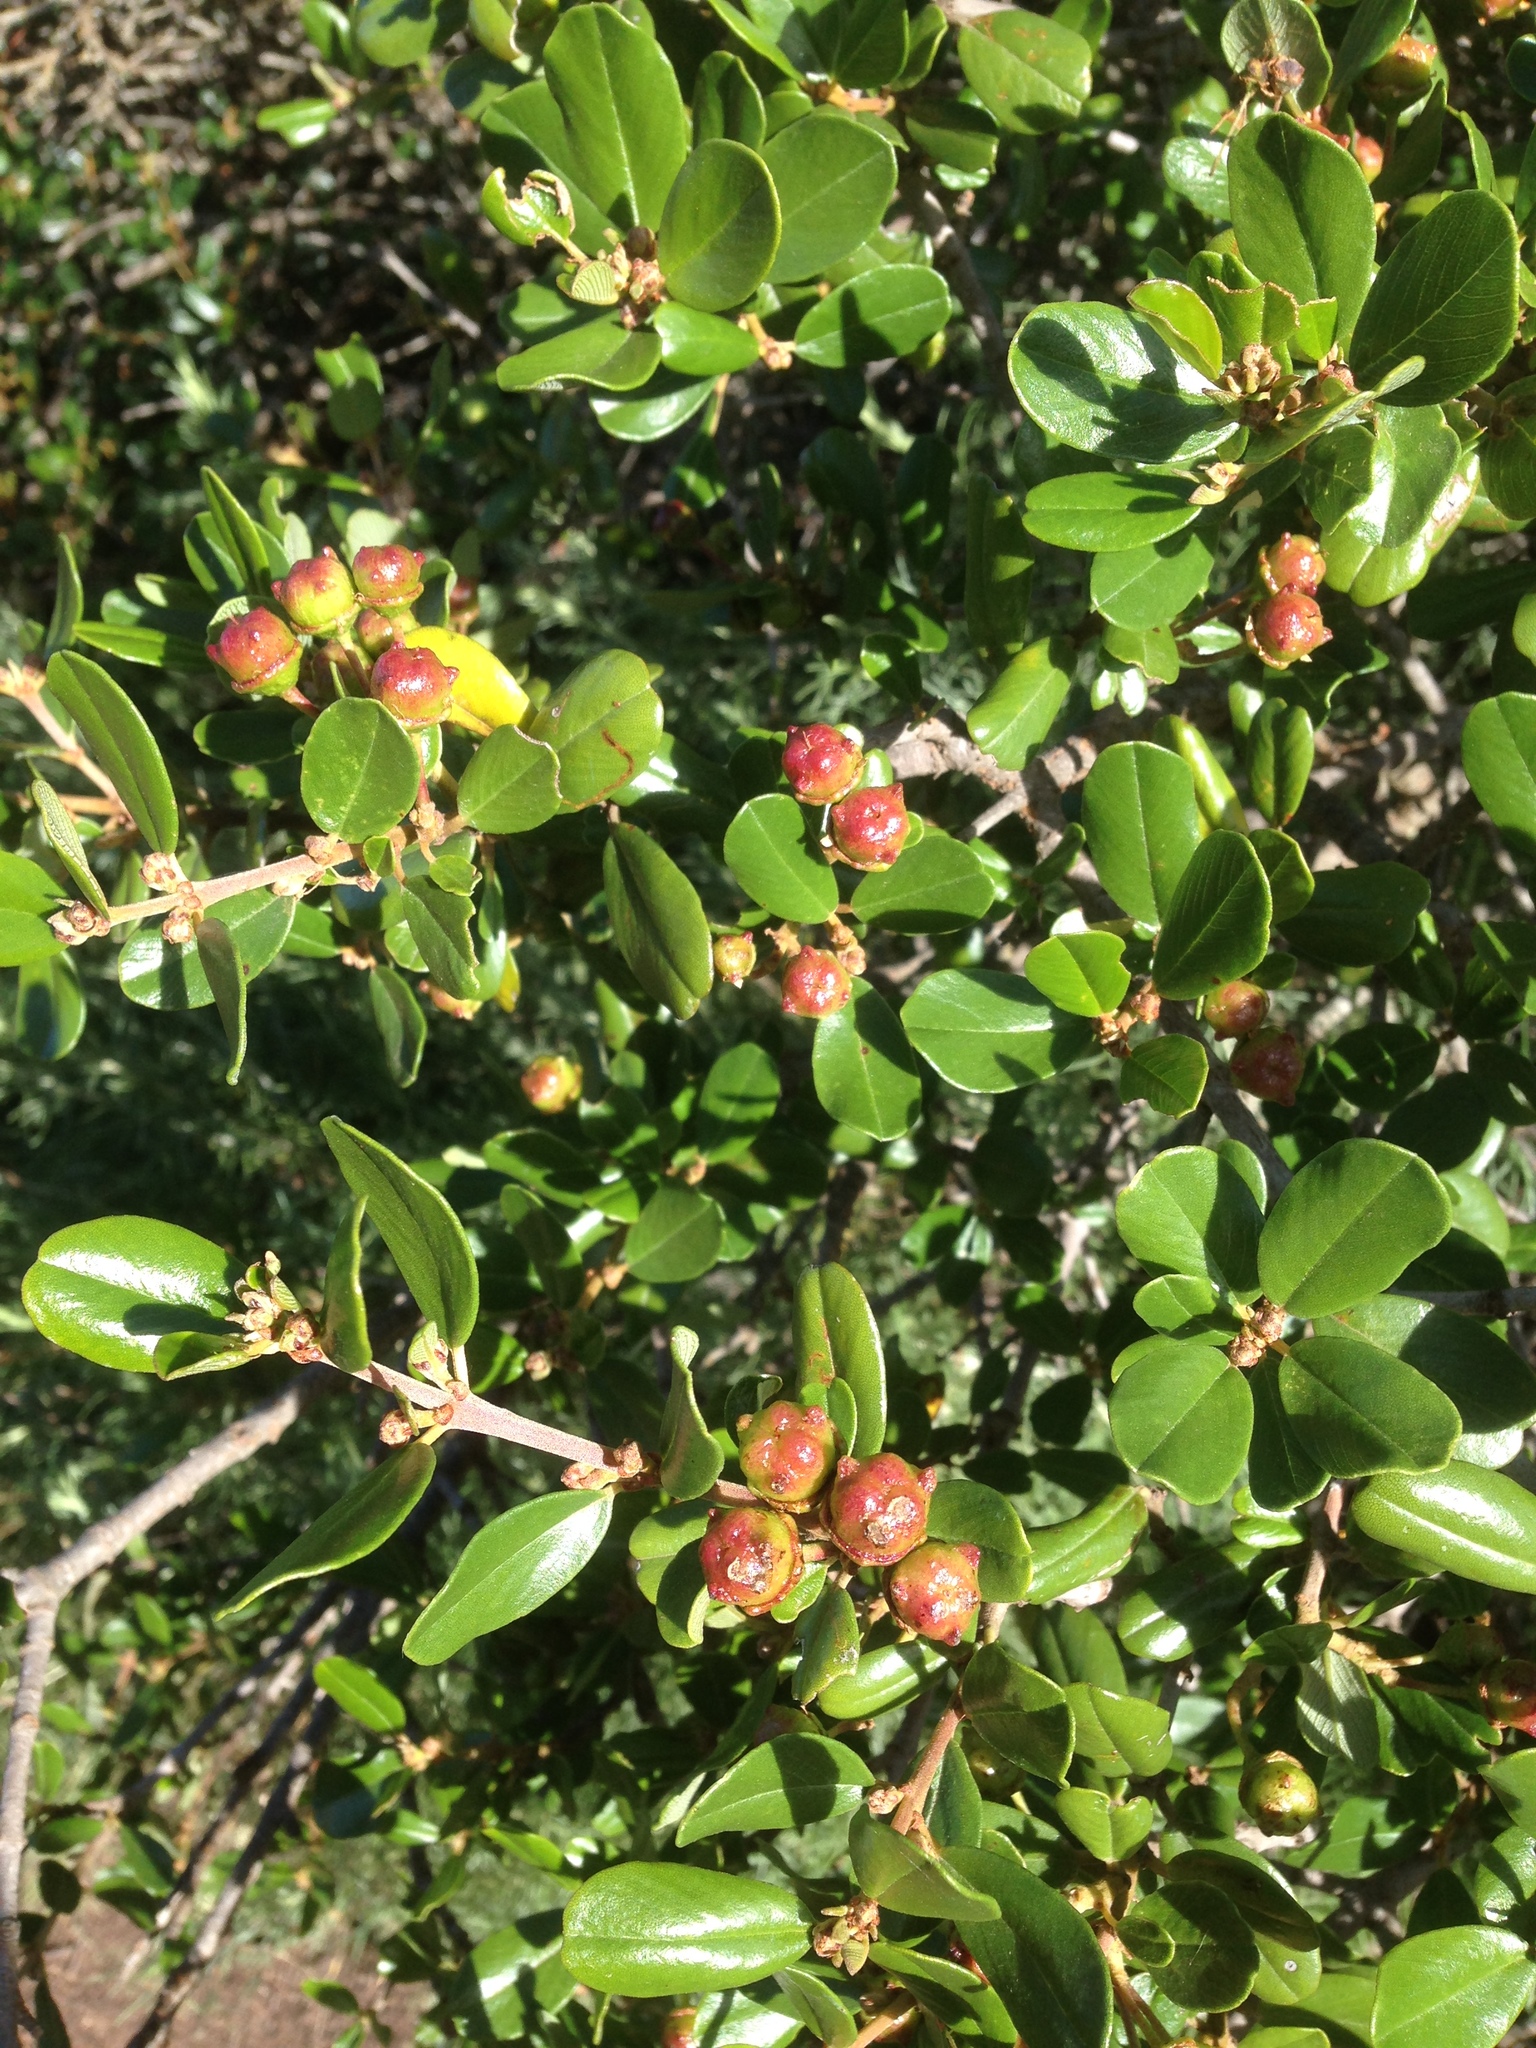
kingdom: Plantae
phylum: Tracheophyta
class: Magnoliopsida
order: Rosales
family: Rhamnaceae
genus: Ceanothus
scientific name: Ceanothus megacarpus
